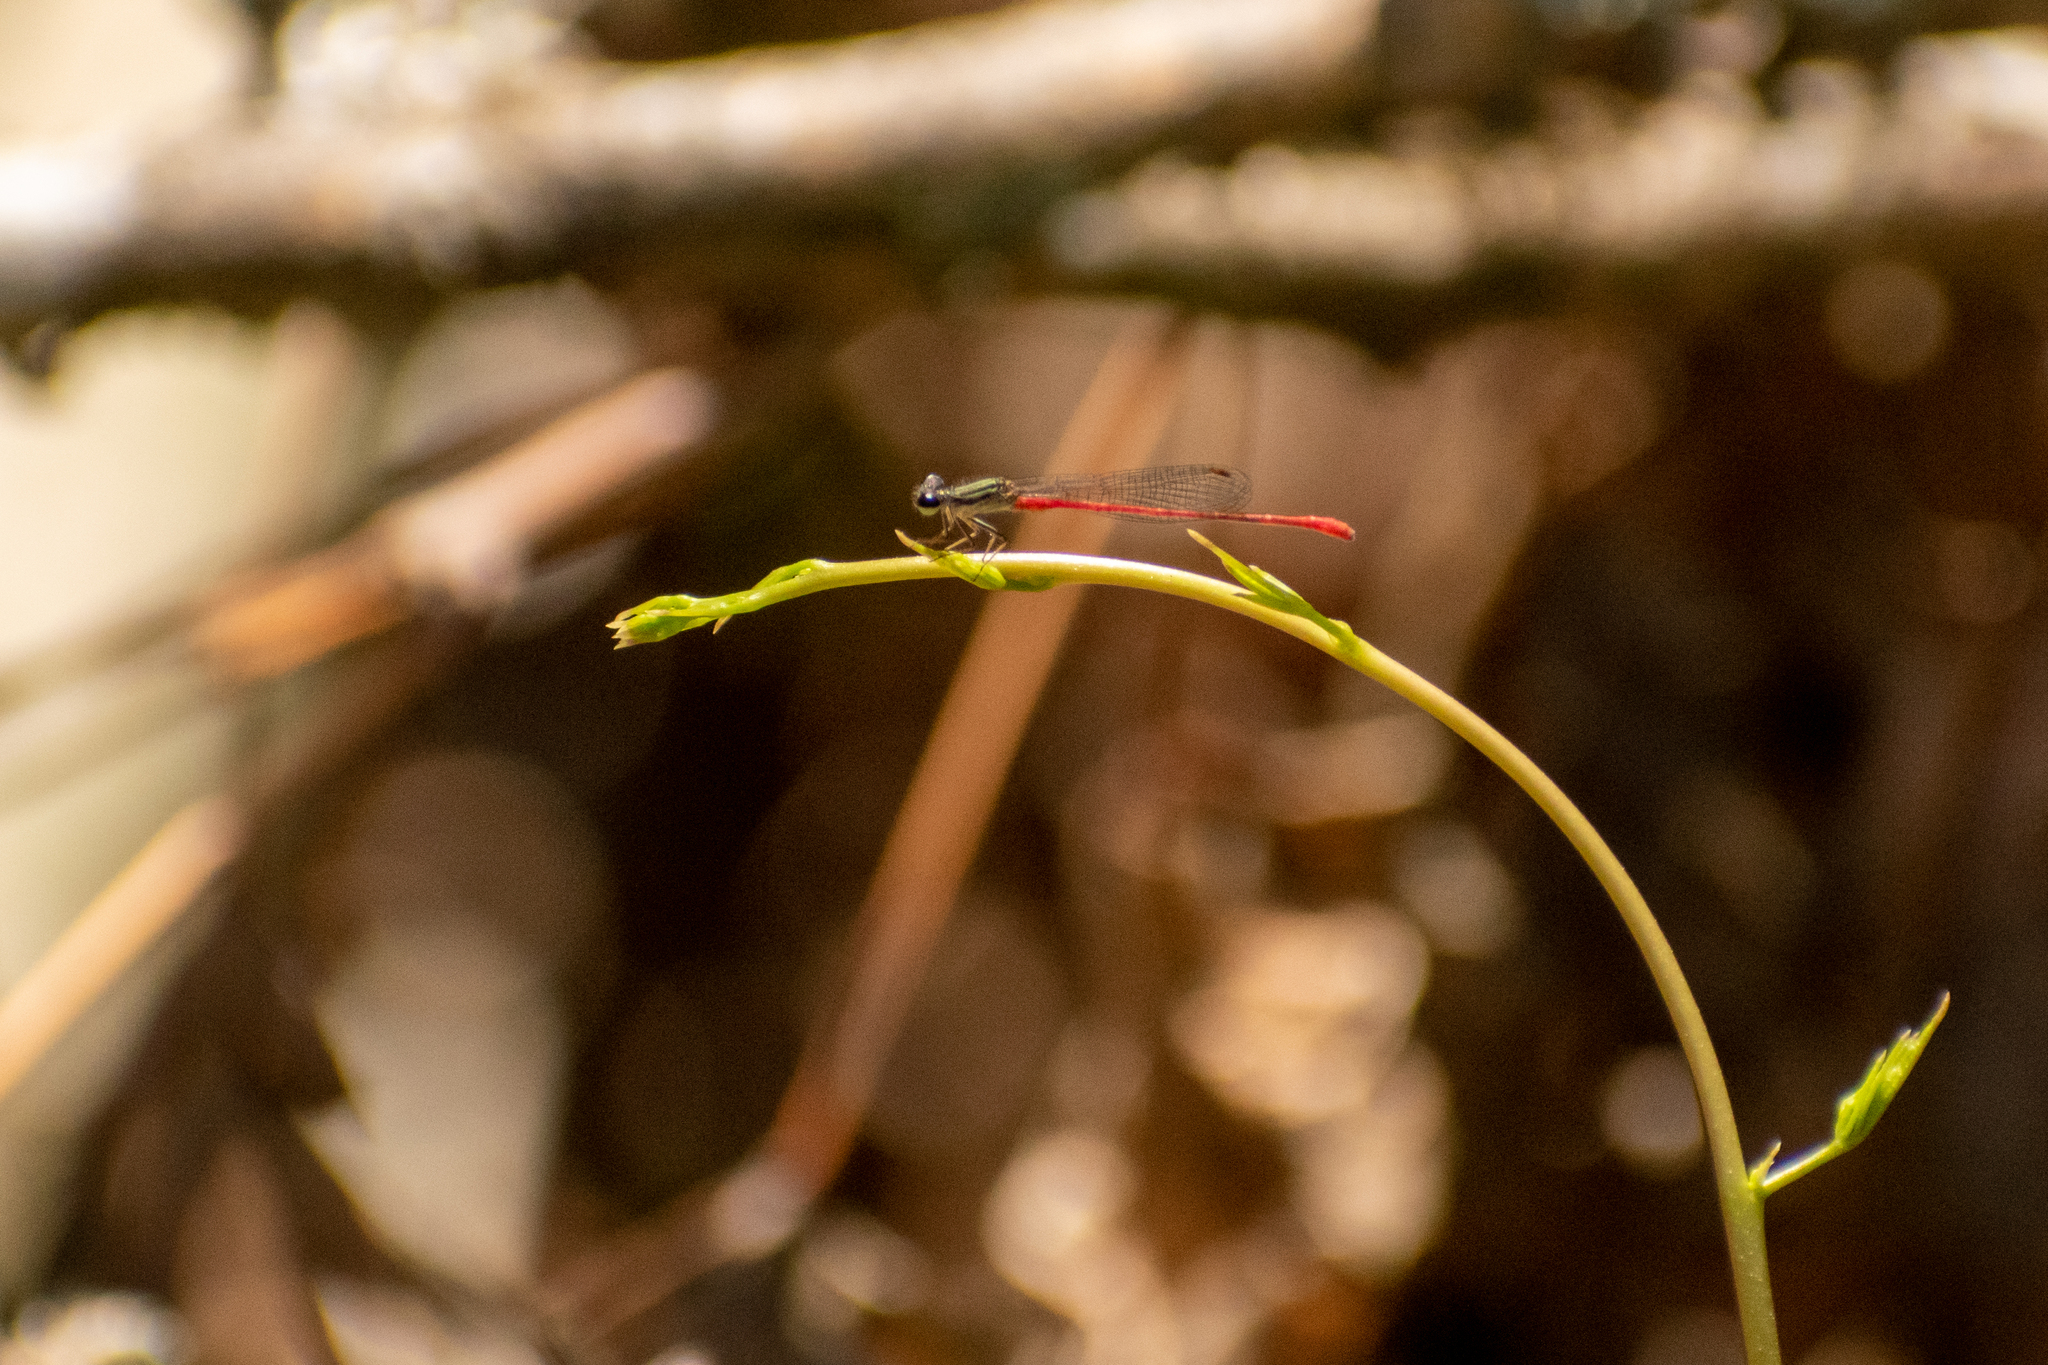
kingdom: Animalia
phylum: Arthropoda
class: Insecta
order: Odonata
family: Coenagrionidae
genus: Telebasis
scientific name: Telebasis willinki
